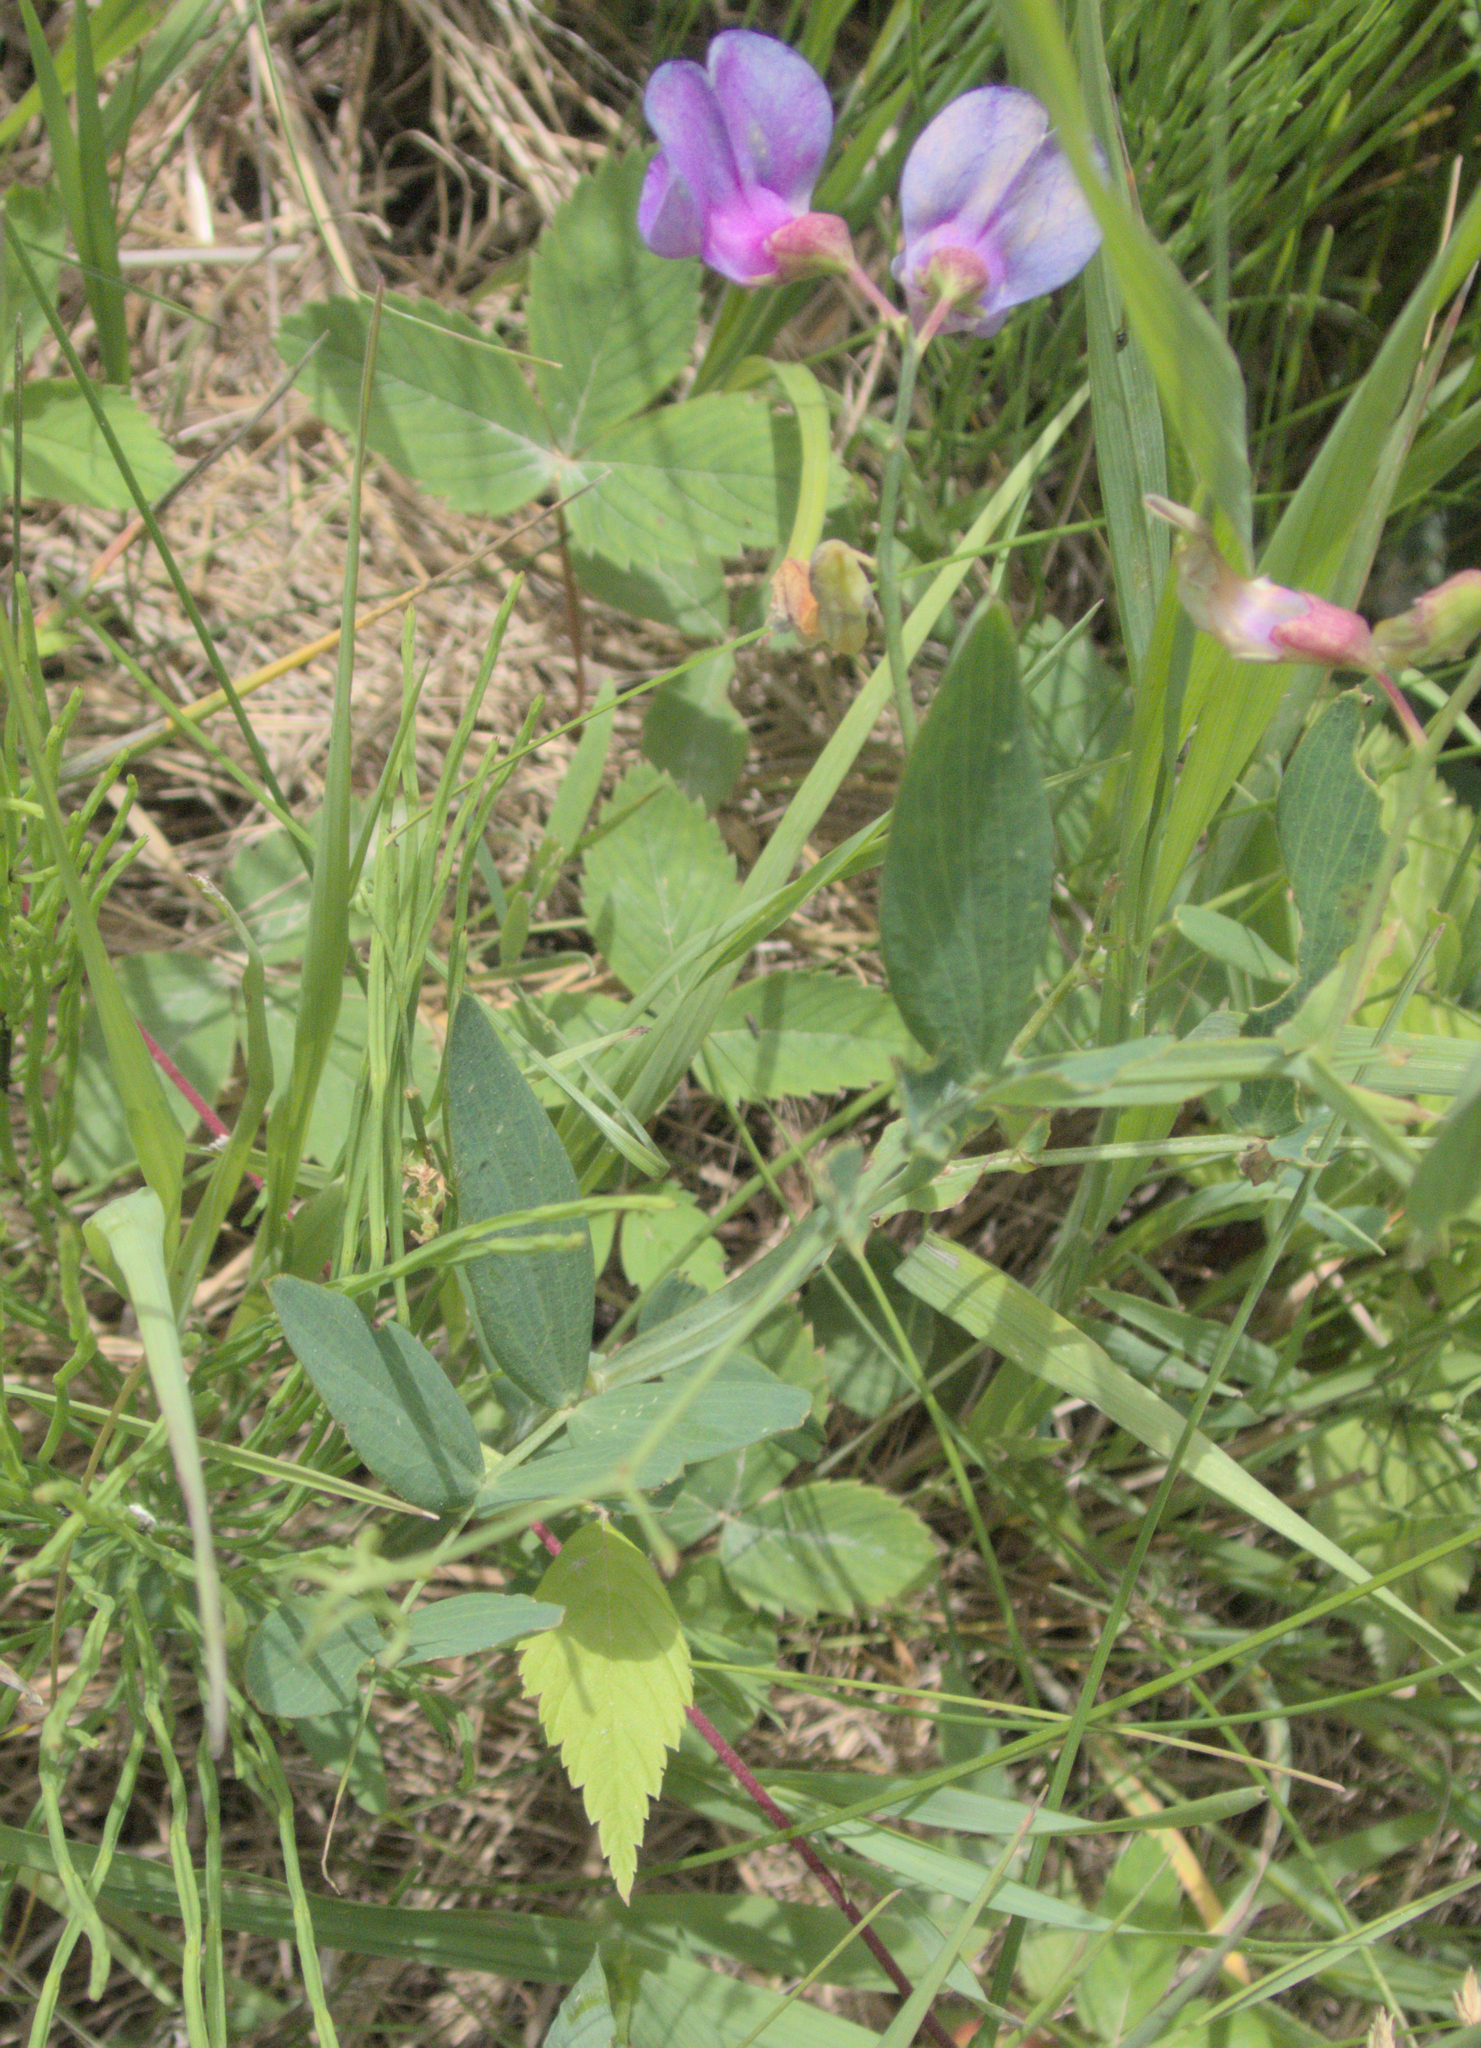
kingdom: Plantae
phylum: Tracheophyta
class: Magnoliopsida
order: Fabales
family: Fabaceae
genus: Lathyrus
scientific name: Lathyrus palustris
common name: Marsh pea
